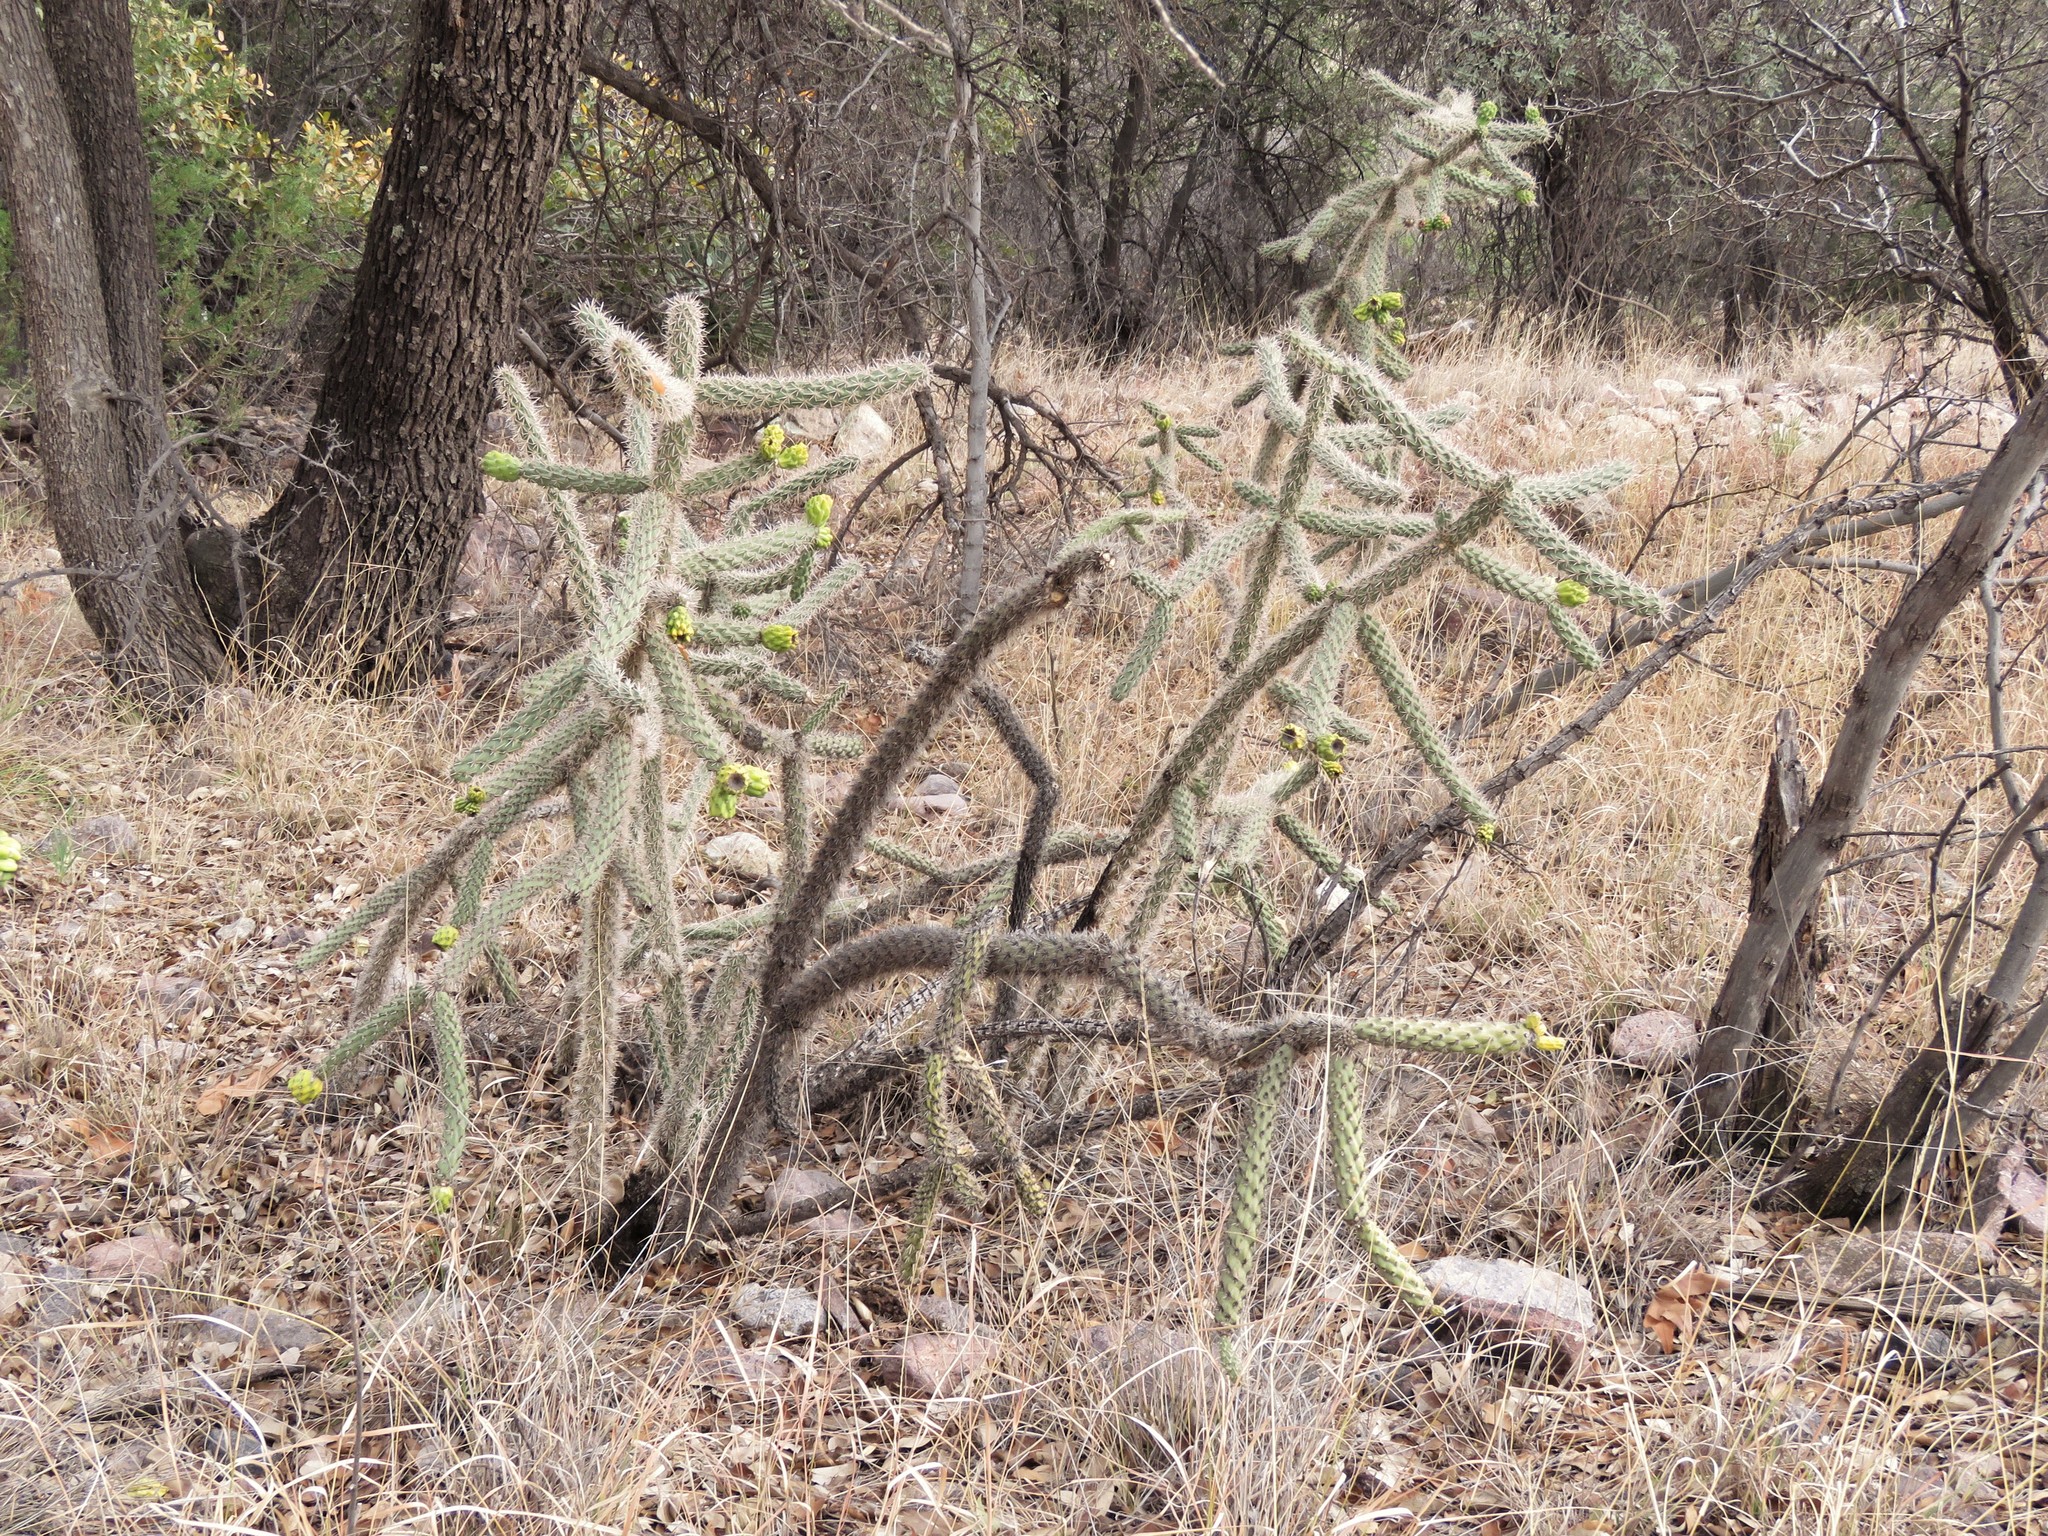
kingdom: Plantae
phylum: Tracheophyta
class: Magnoliopsida
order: Caryophyllales
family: Cactaceae
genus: Cylindropuntia
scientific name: Cylindropuntia imbricata
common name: Candelabrum cactus
